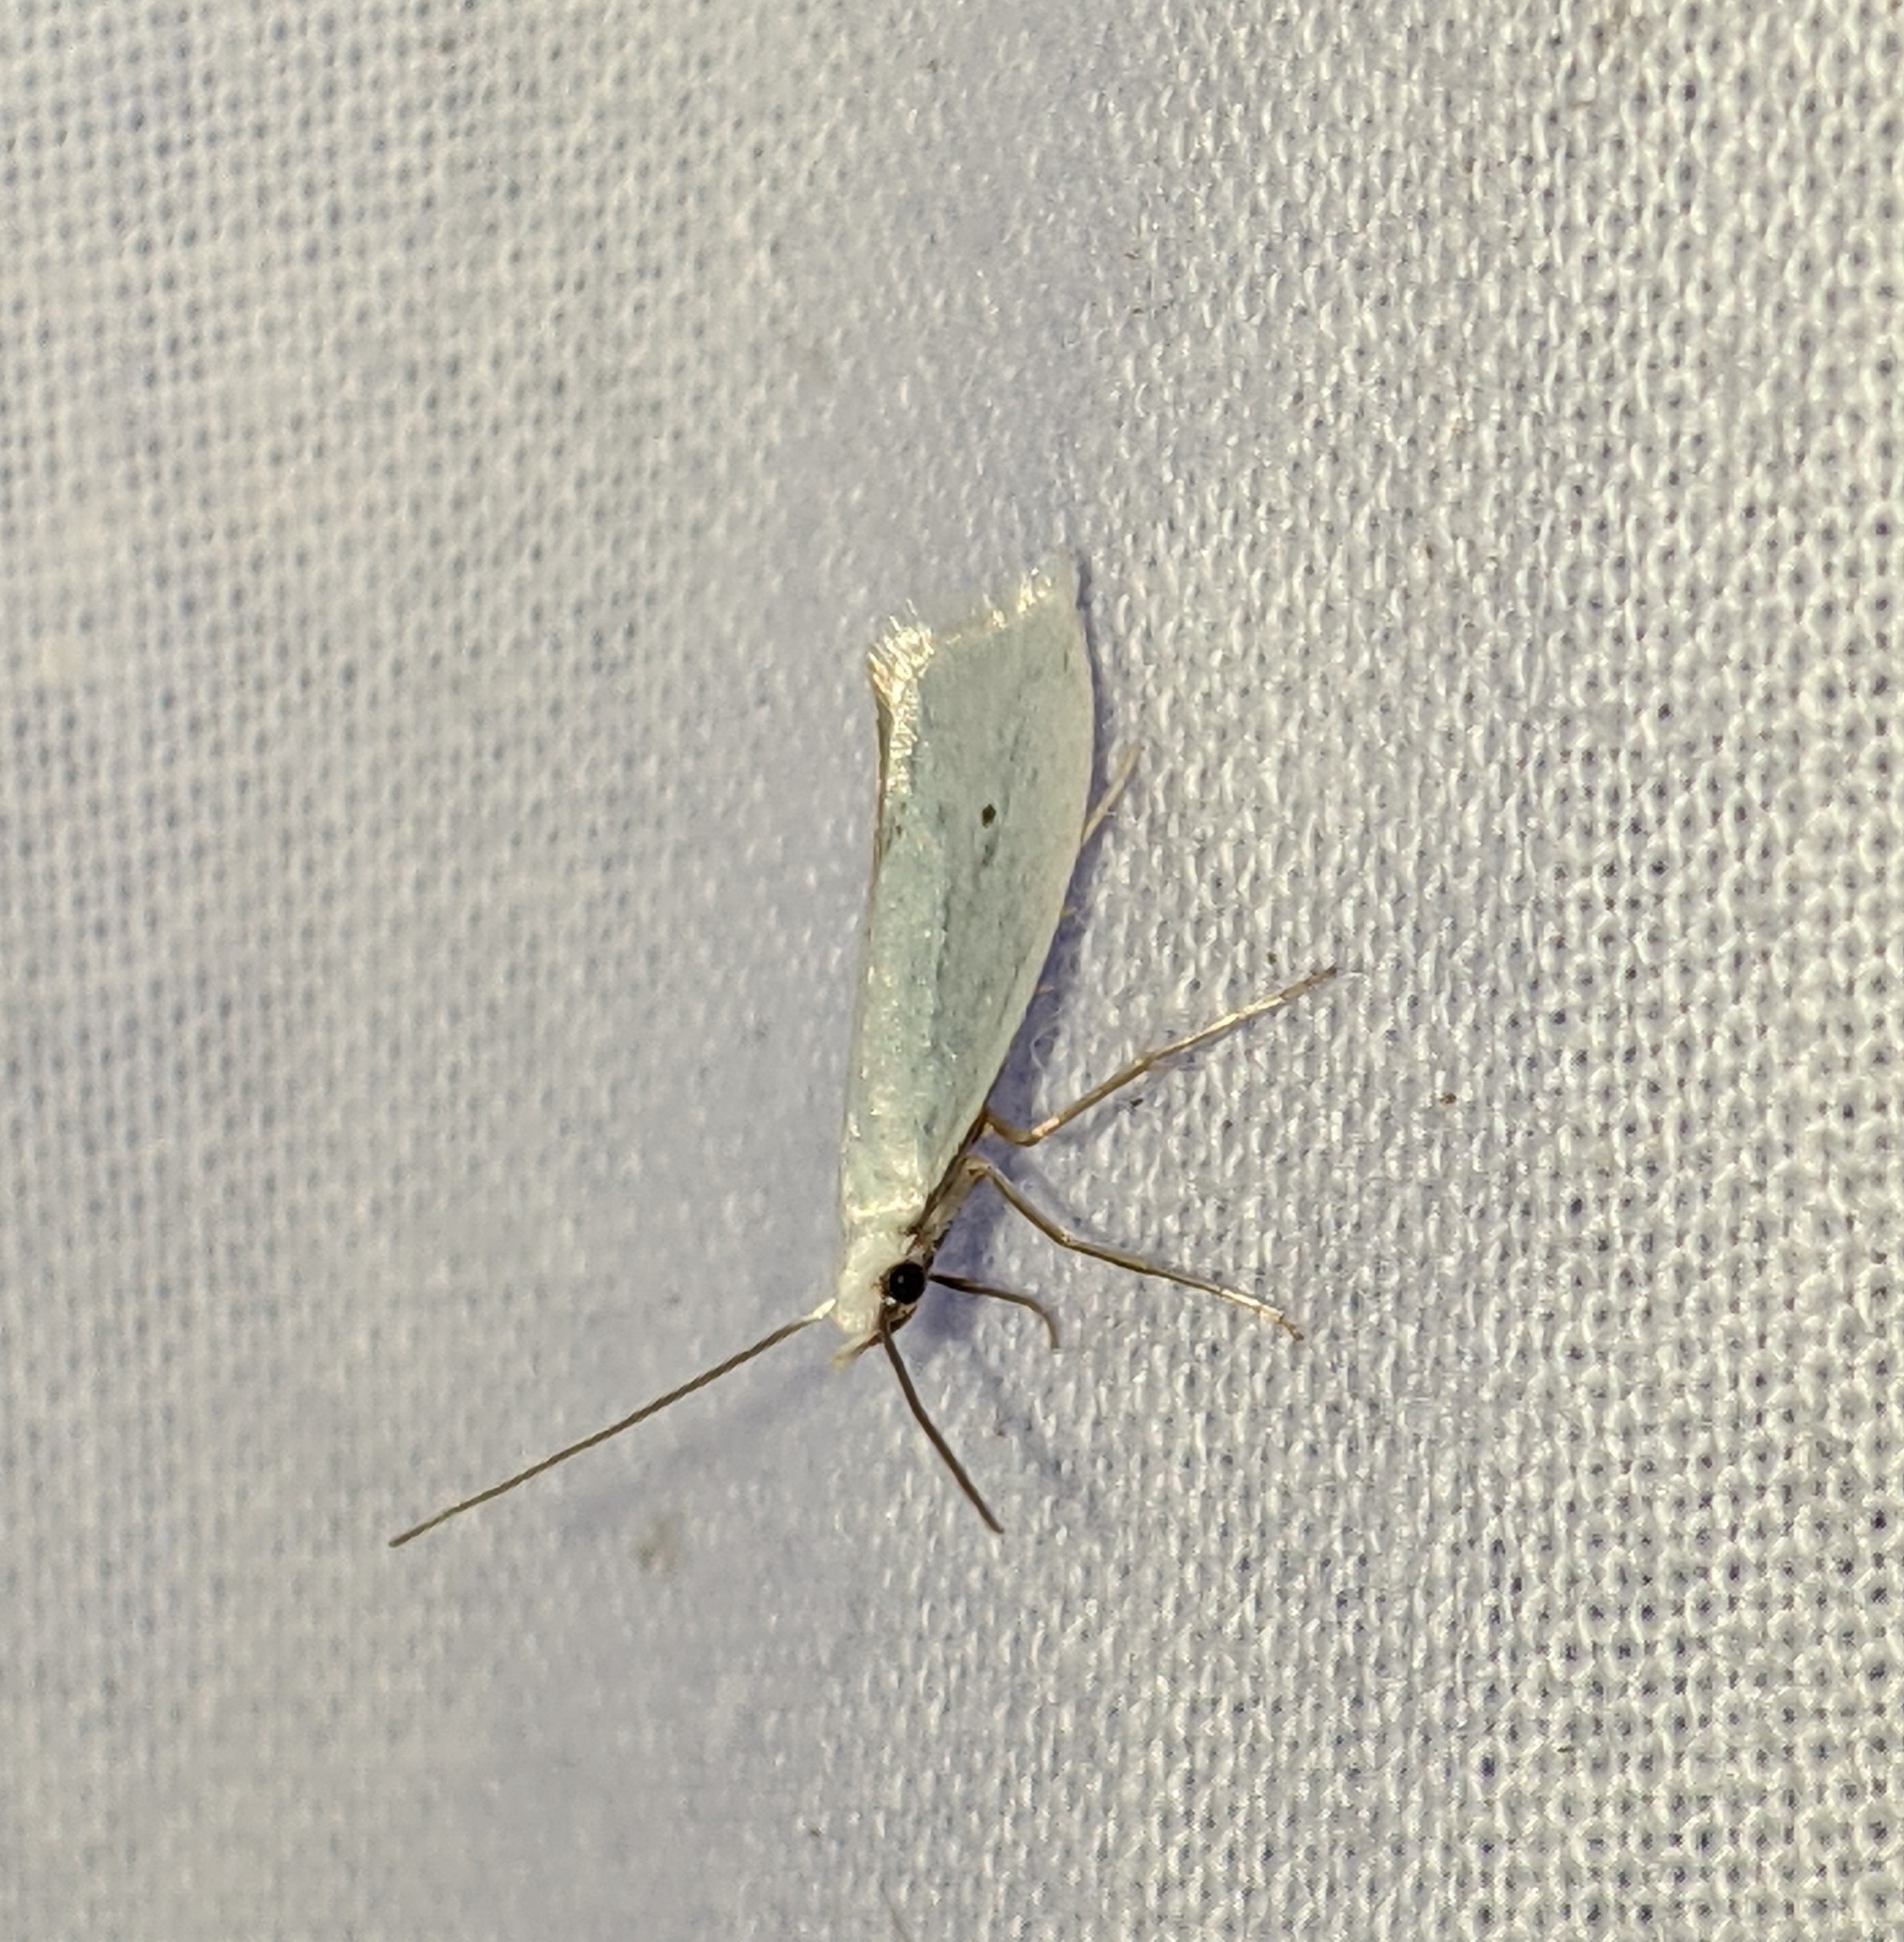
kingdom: Animalia
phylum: Arthropoda
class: Insecta
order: Lepidoptera
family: Yponomeutidae
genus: Eucalantica
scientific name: Eucalantica polita
